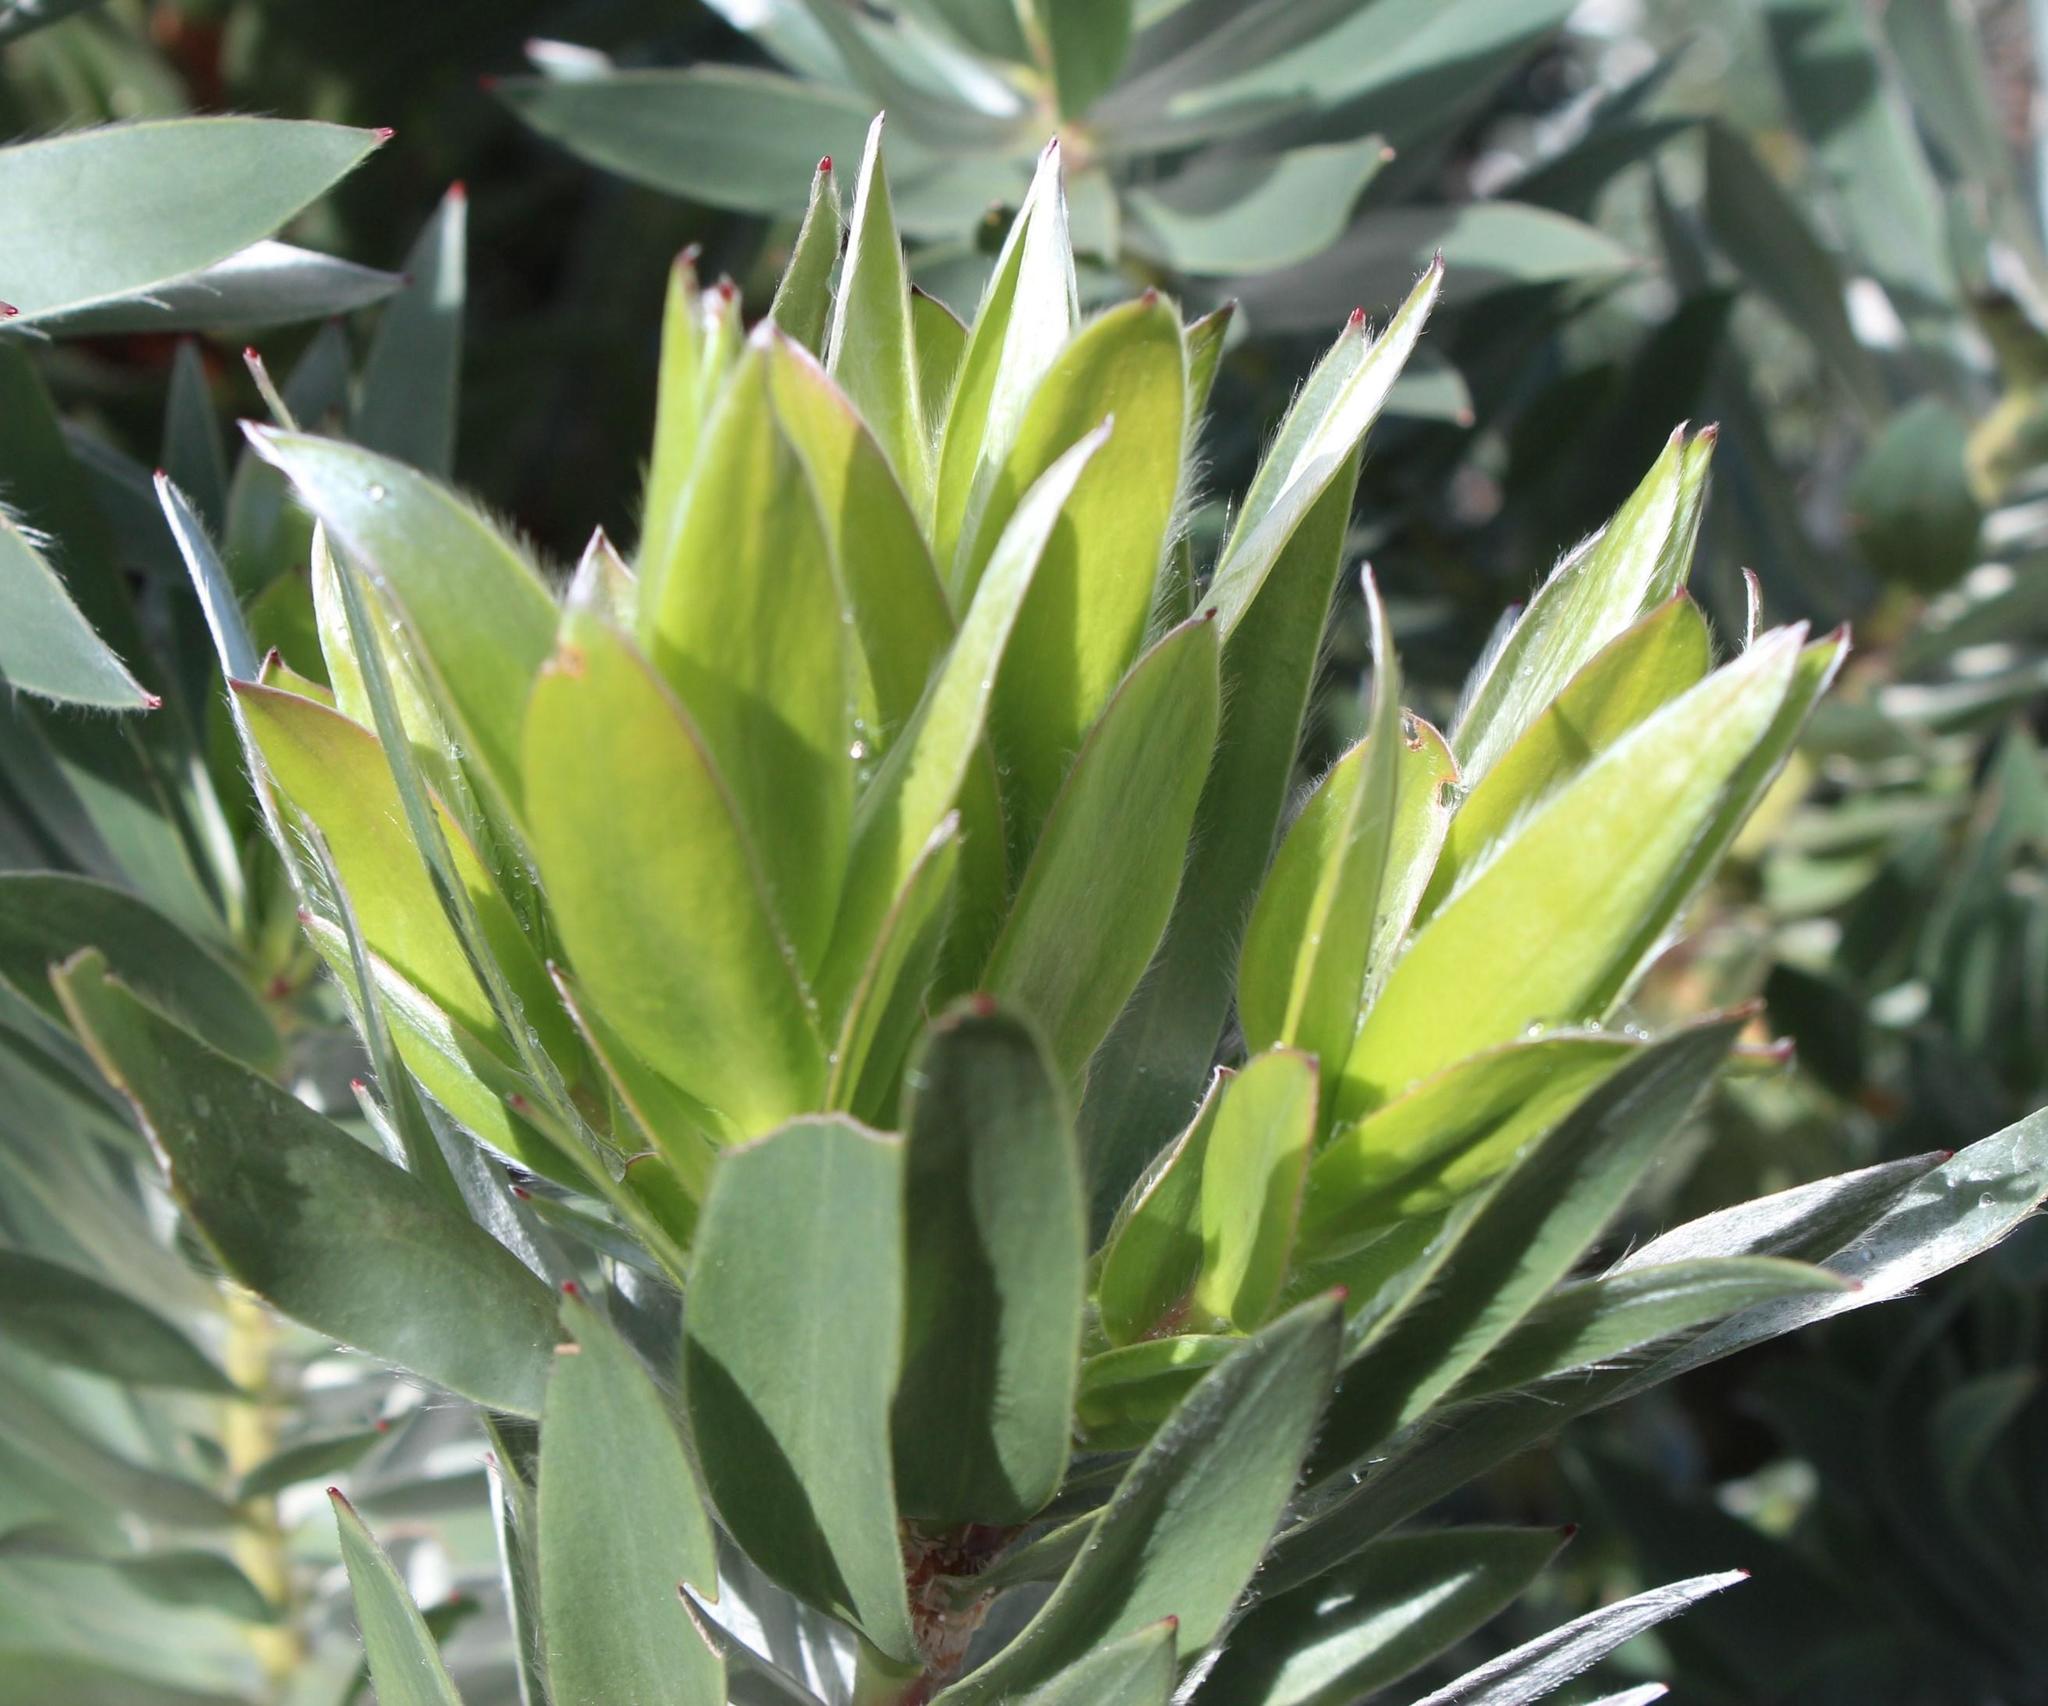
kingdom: Plantae
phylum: Tracheophyta
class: Magnoliopsida
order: Proteales
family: Proteaceae
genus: Leucadendron
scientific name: Leucadendron argenteum
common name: Cape silver tree
